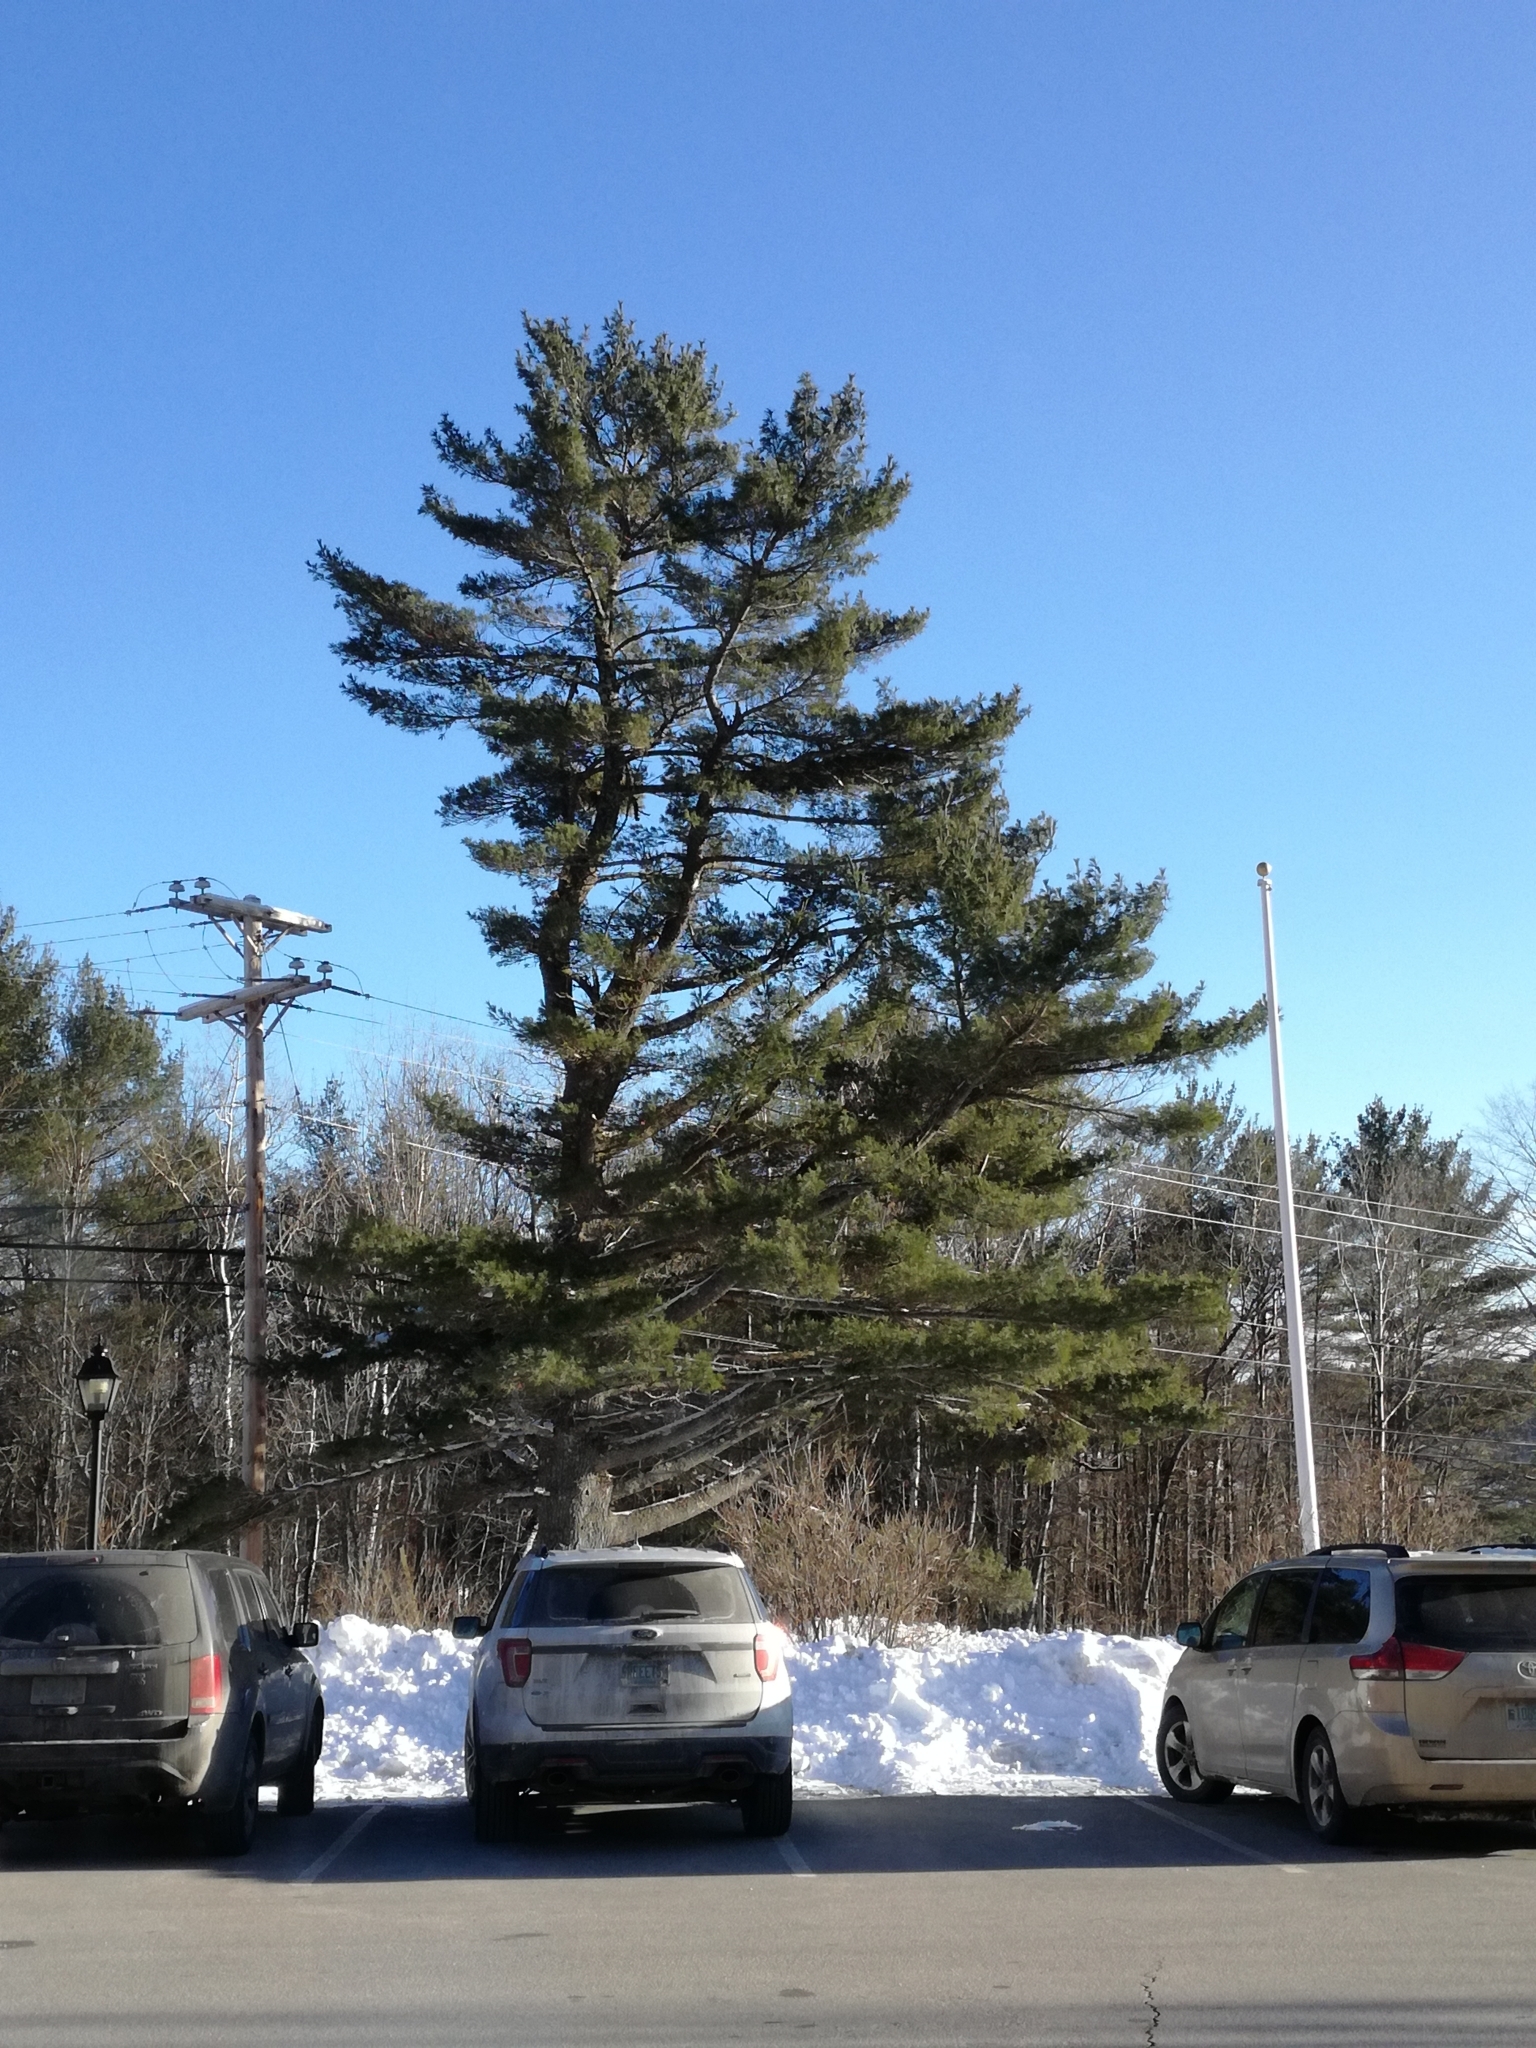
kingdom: Plantae
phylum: Tracheophyta
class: Pinopsida
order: Pinales
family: Pinaceae
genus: Pinus
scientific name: Pinus strobus
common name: Weymouth pine
